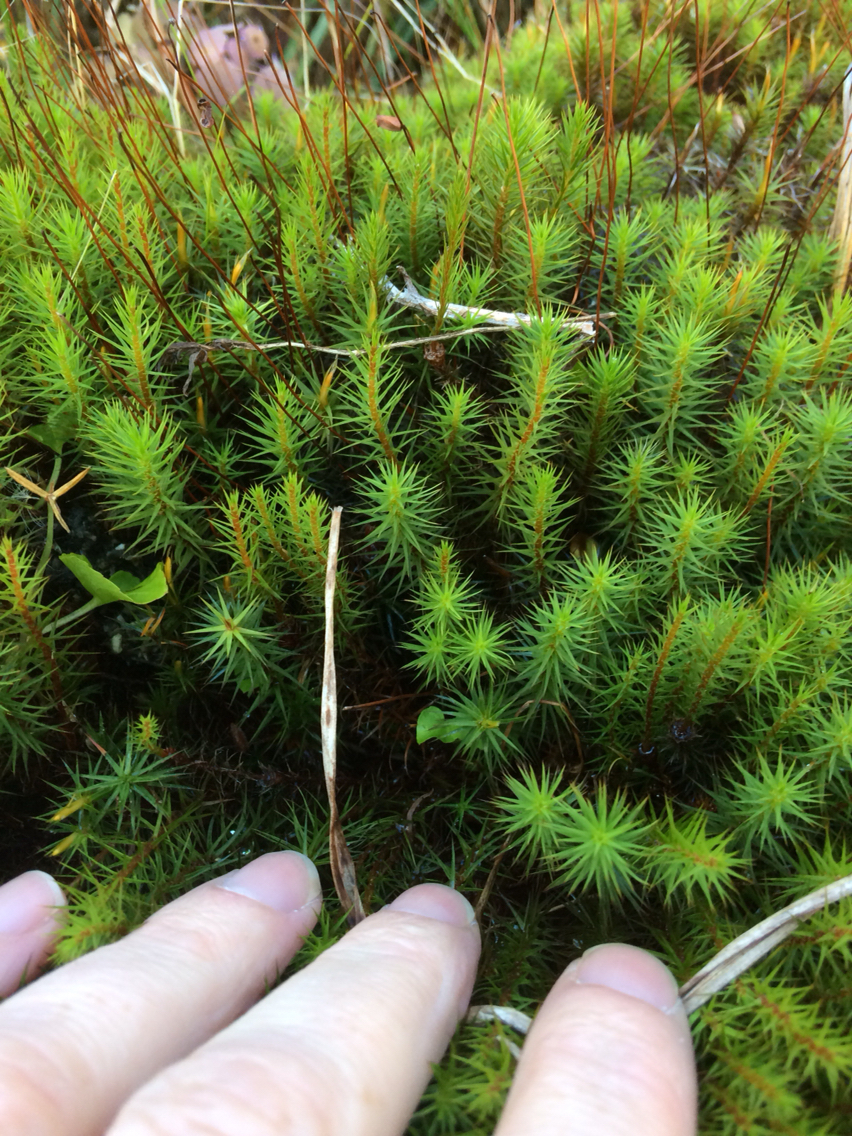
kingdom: Plantae
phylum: Bryophyta
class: Polytrichopsida
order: Polytrichales
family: Polytrichaceae
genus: Polytrichum
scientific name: Polytrichum
